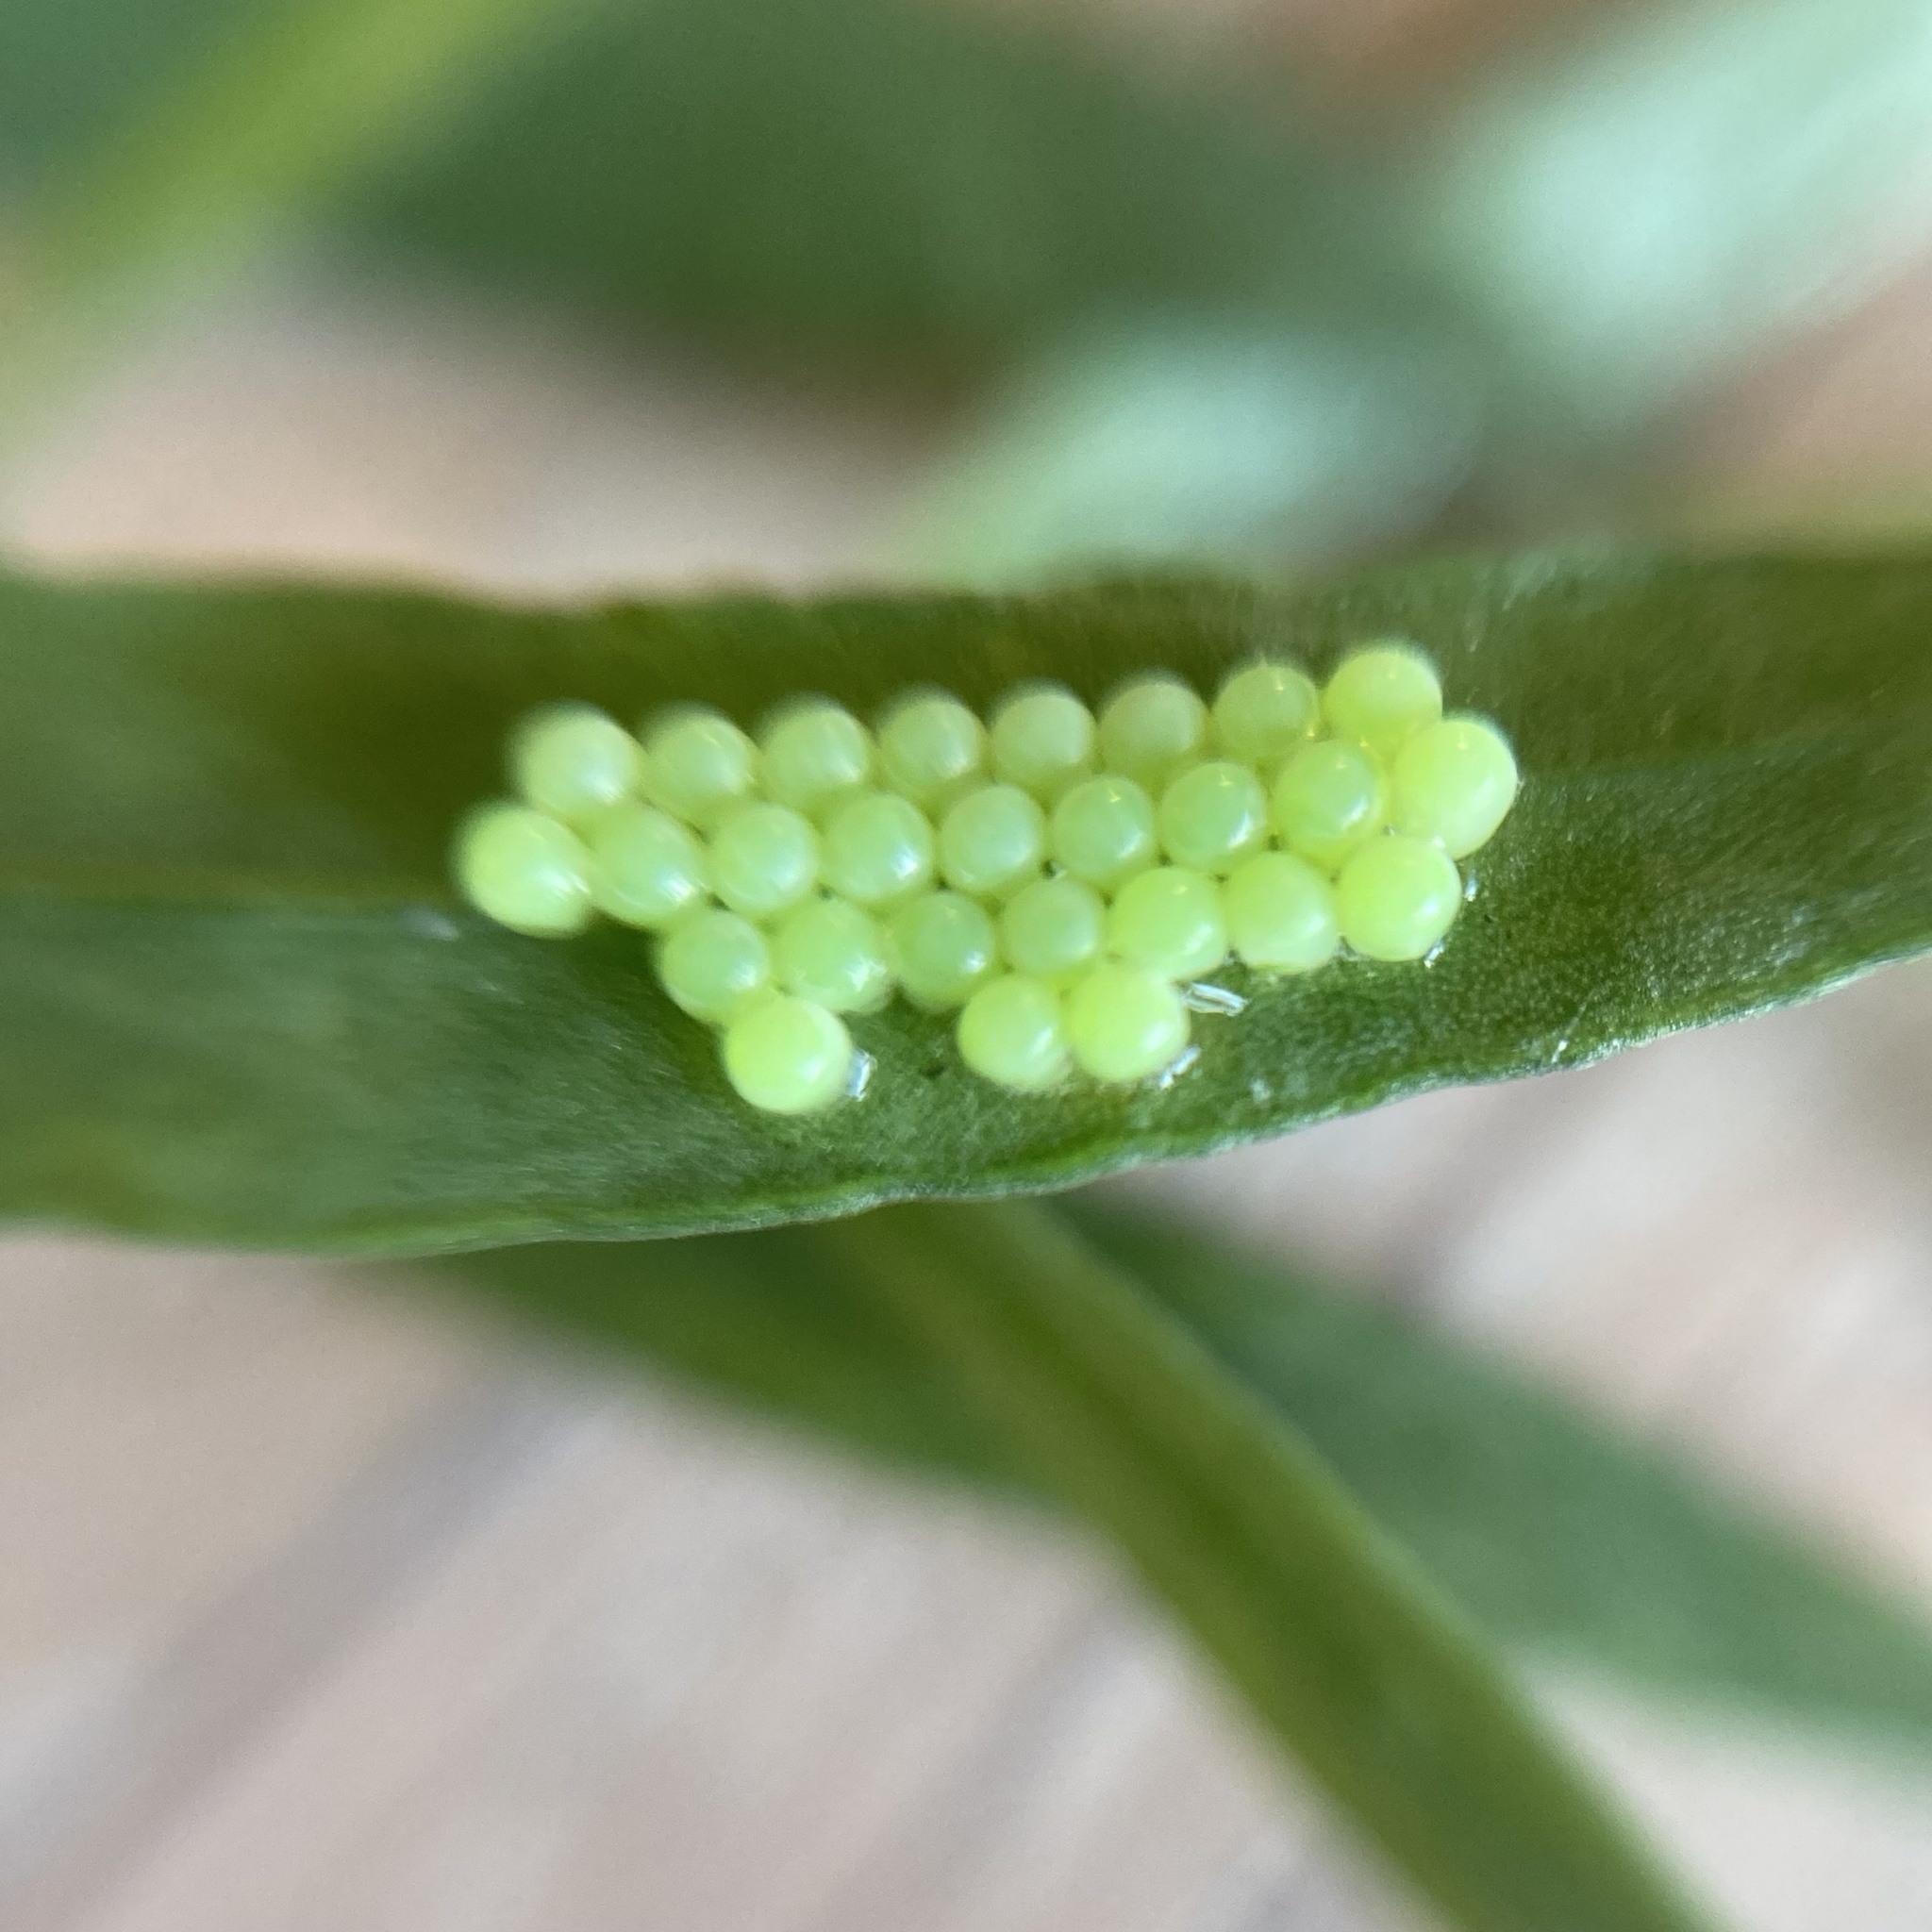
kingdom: Animalia
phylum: Arthropoda
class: Insecta
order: Hemiptera
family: Pentatomidae
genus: Palomena
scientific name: Palomena prasina
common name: Green shieldbug
